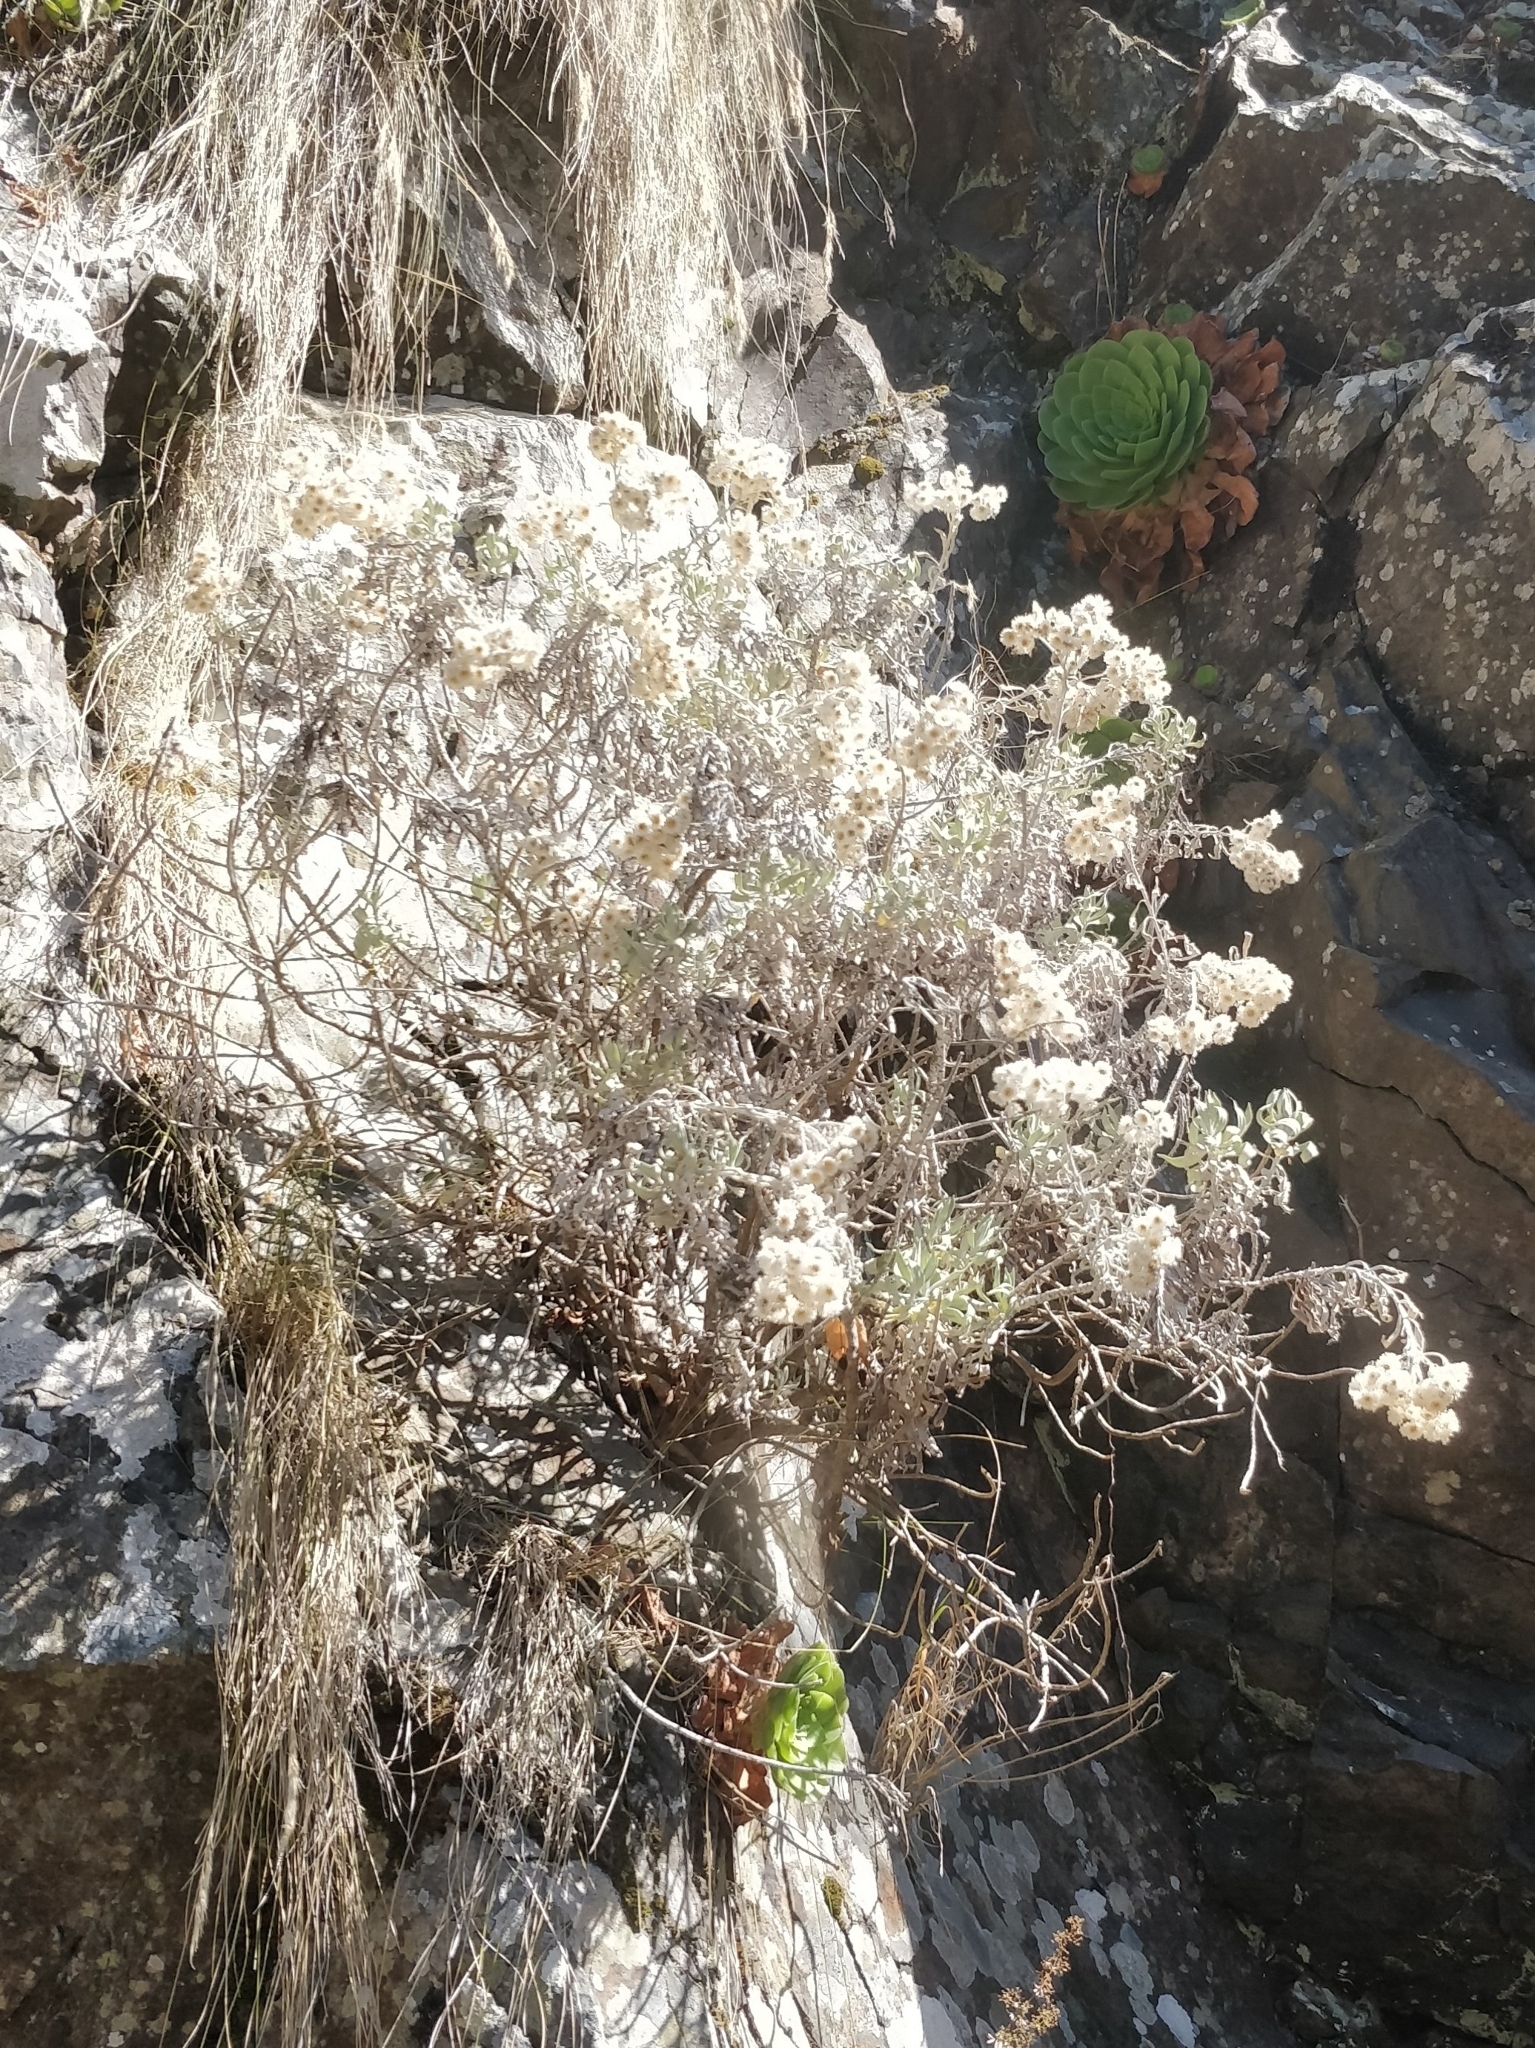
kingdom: Plantae
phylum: Tracheophyta
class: Magnoliopsida
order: Asterales
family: Asteraceae
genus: Helichrysum
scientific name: Helichrysum melaleucum
